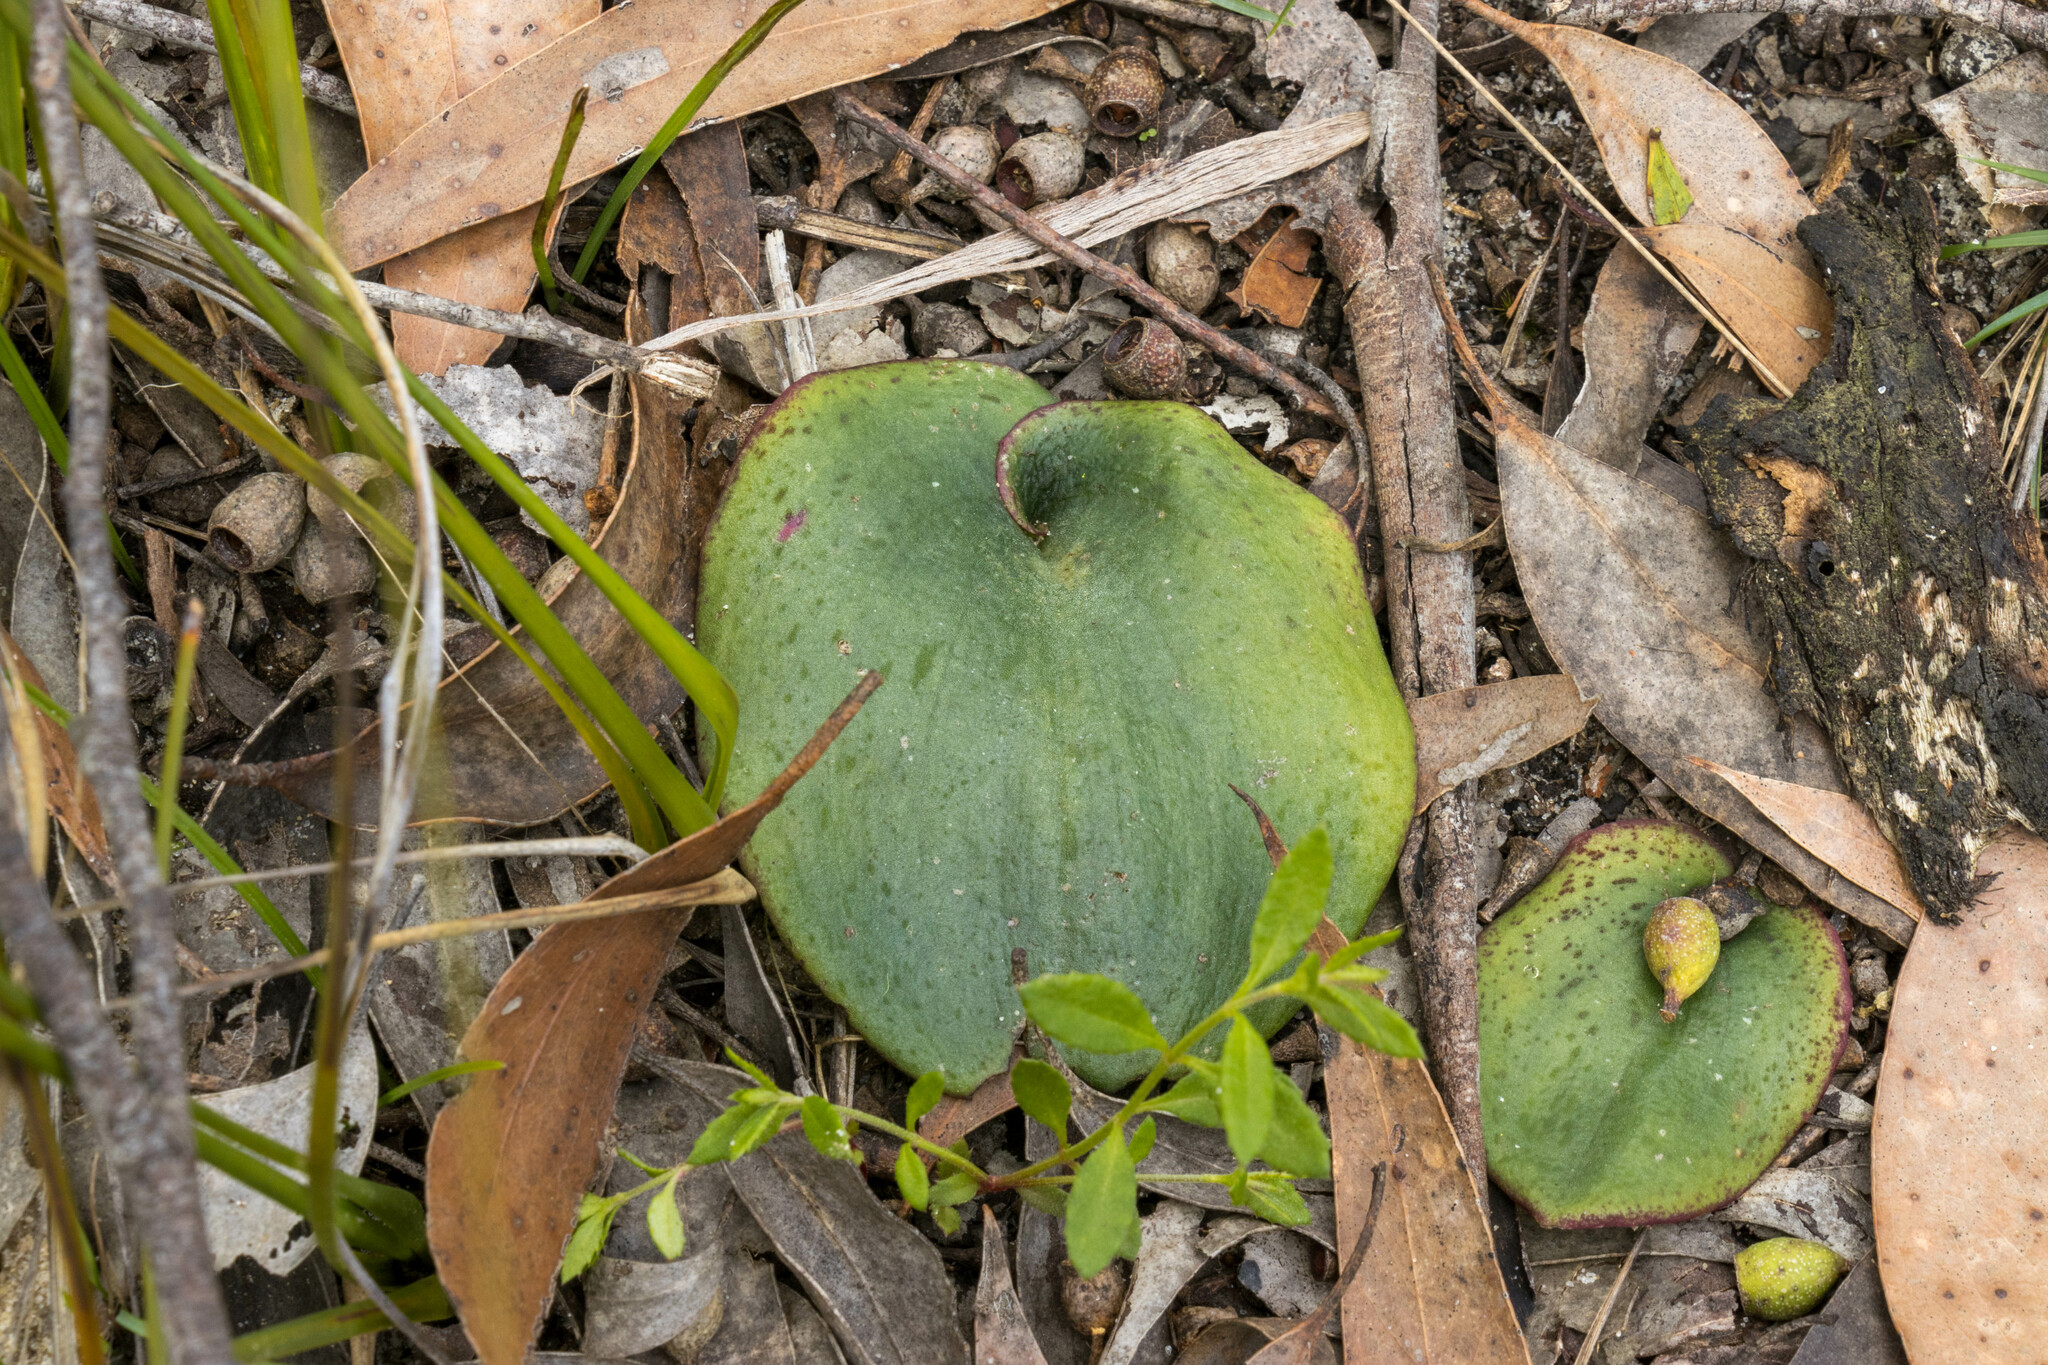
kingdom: Plantae
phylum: Tracheophyta
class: Liliopsida
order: Asparagales
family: Orchidaceae
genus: Pyrorchis
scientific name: Pyrorchis nigricans
